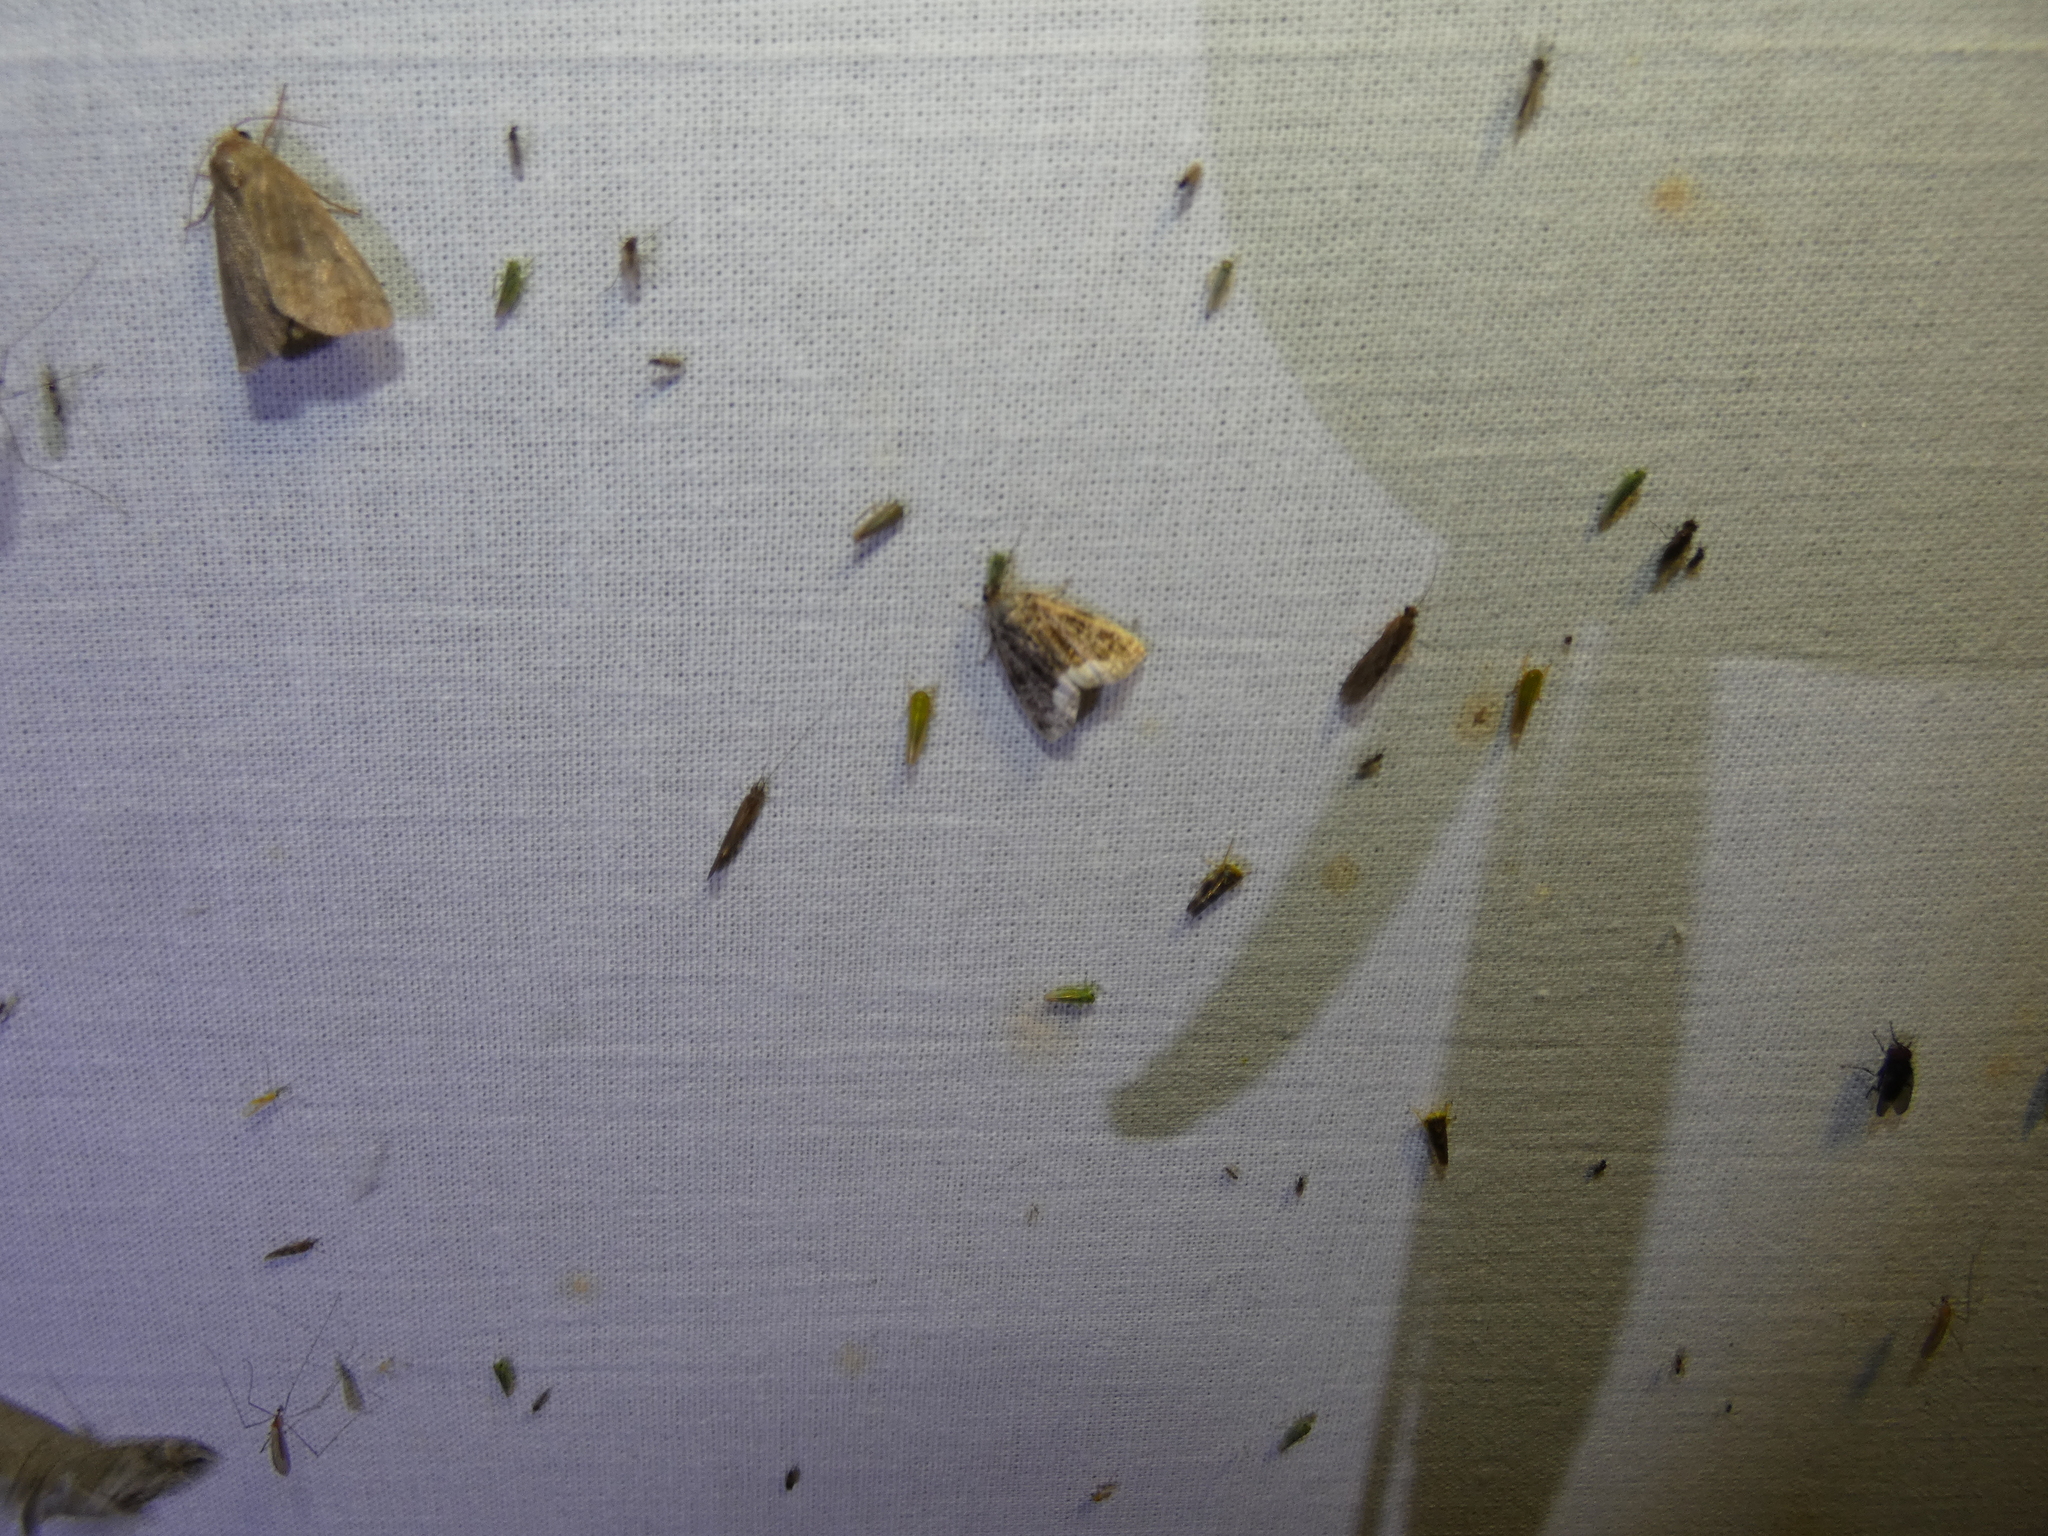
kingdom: Animalia
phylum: Arthropoda
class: Insecta
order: Lepidoptera
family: Noctuidae
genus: Deltote
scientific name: Deltote pygarga
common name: Marbled white spot
